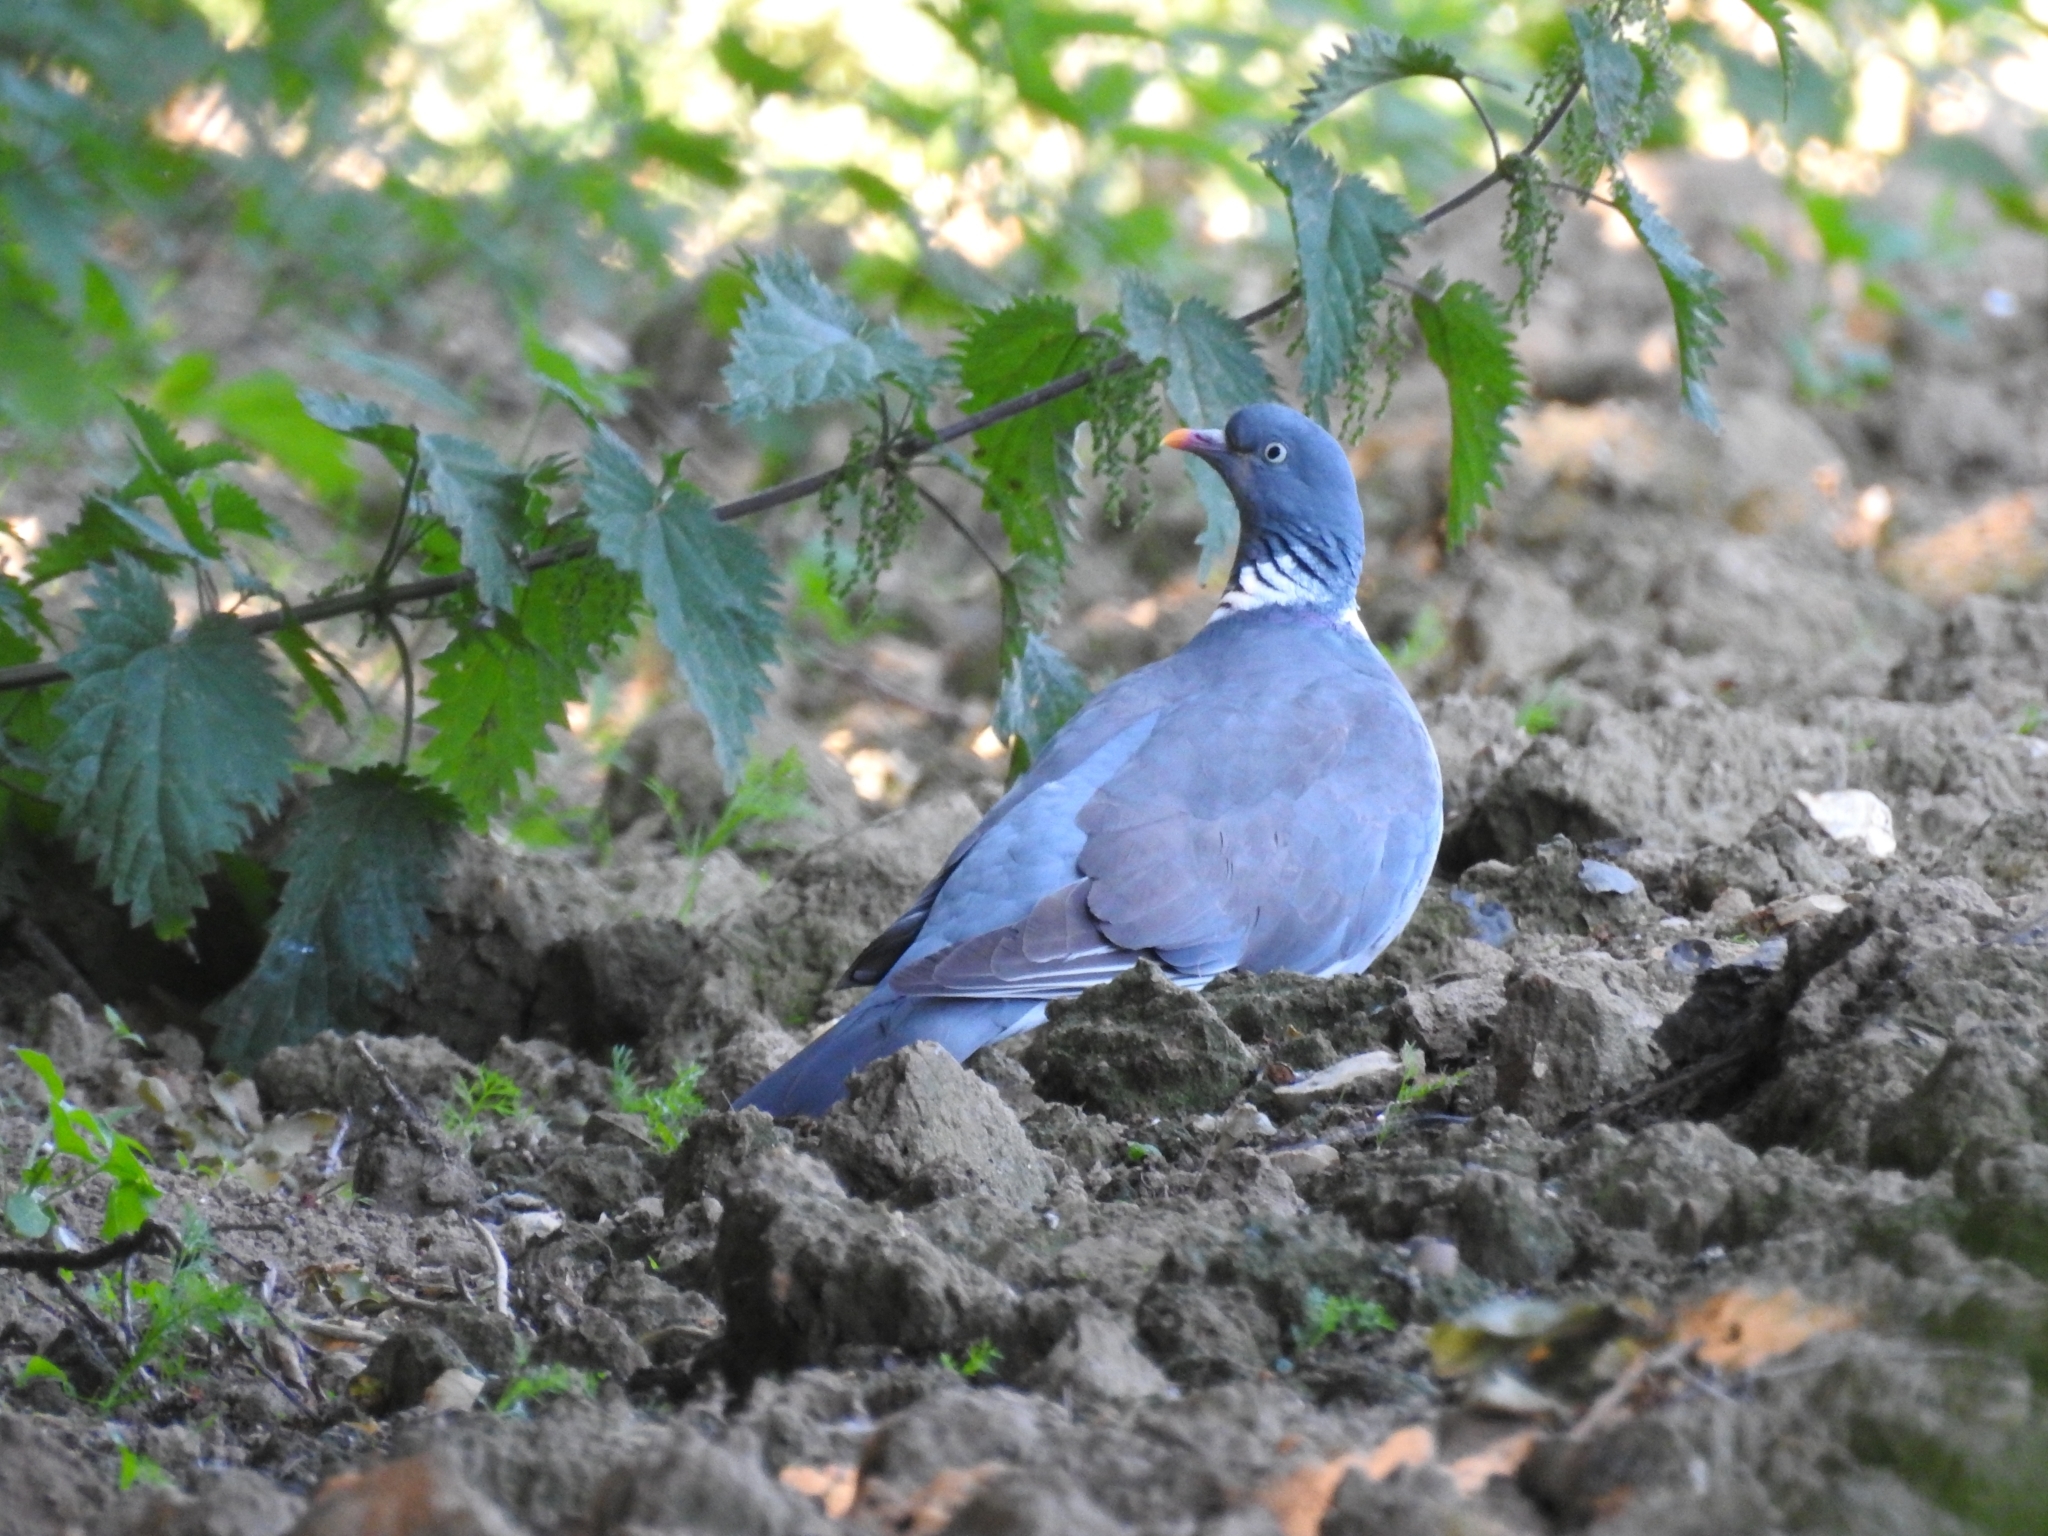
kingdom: Animalia
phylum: Chordata
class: Aves
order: Columbiformes
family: Columbidae
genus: Columba
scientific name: Columba palumbus
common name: Common wood pigeon
